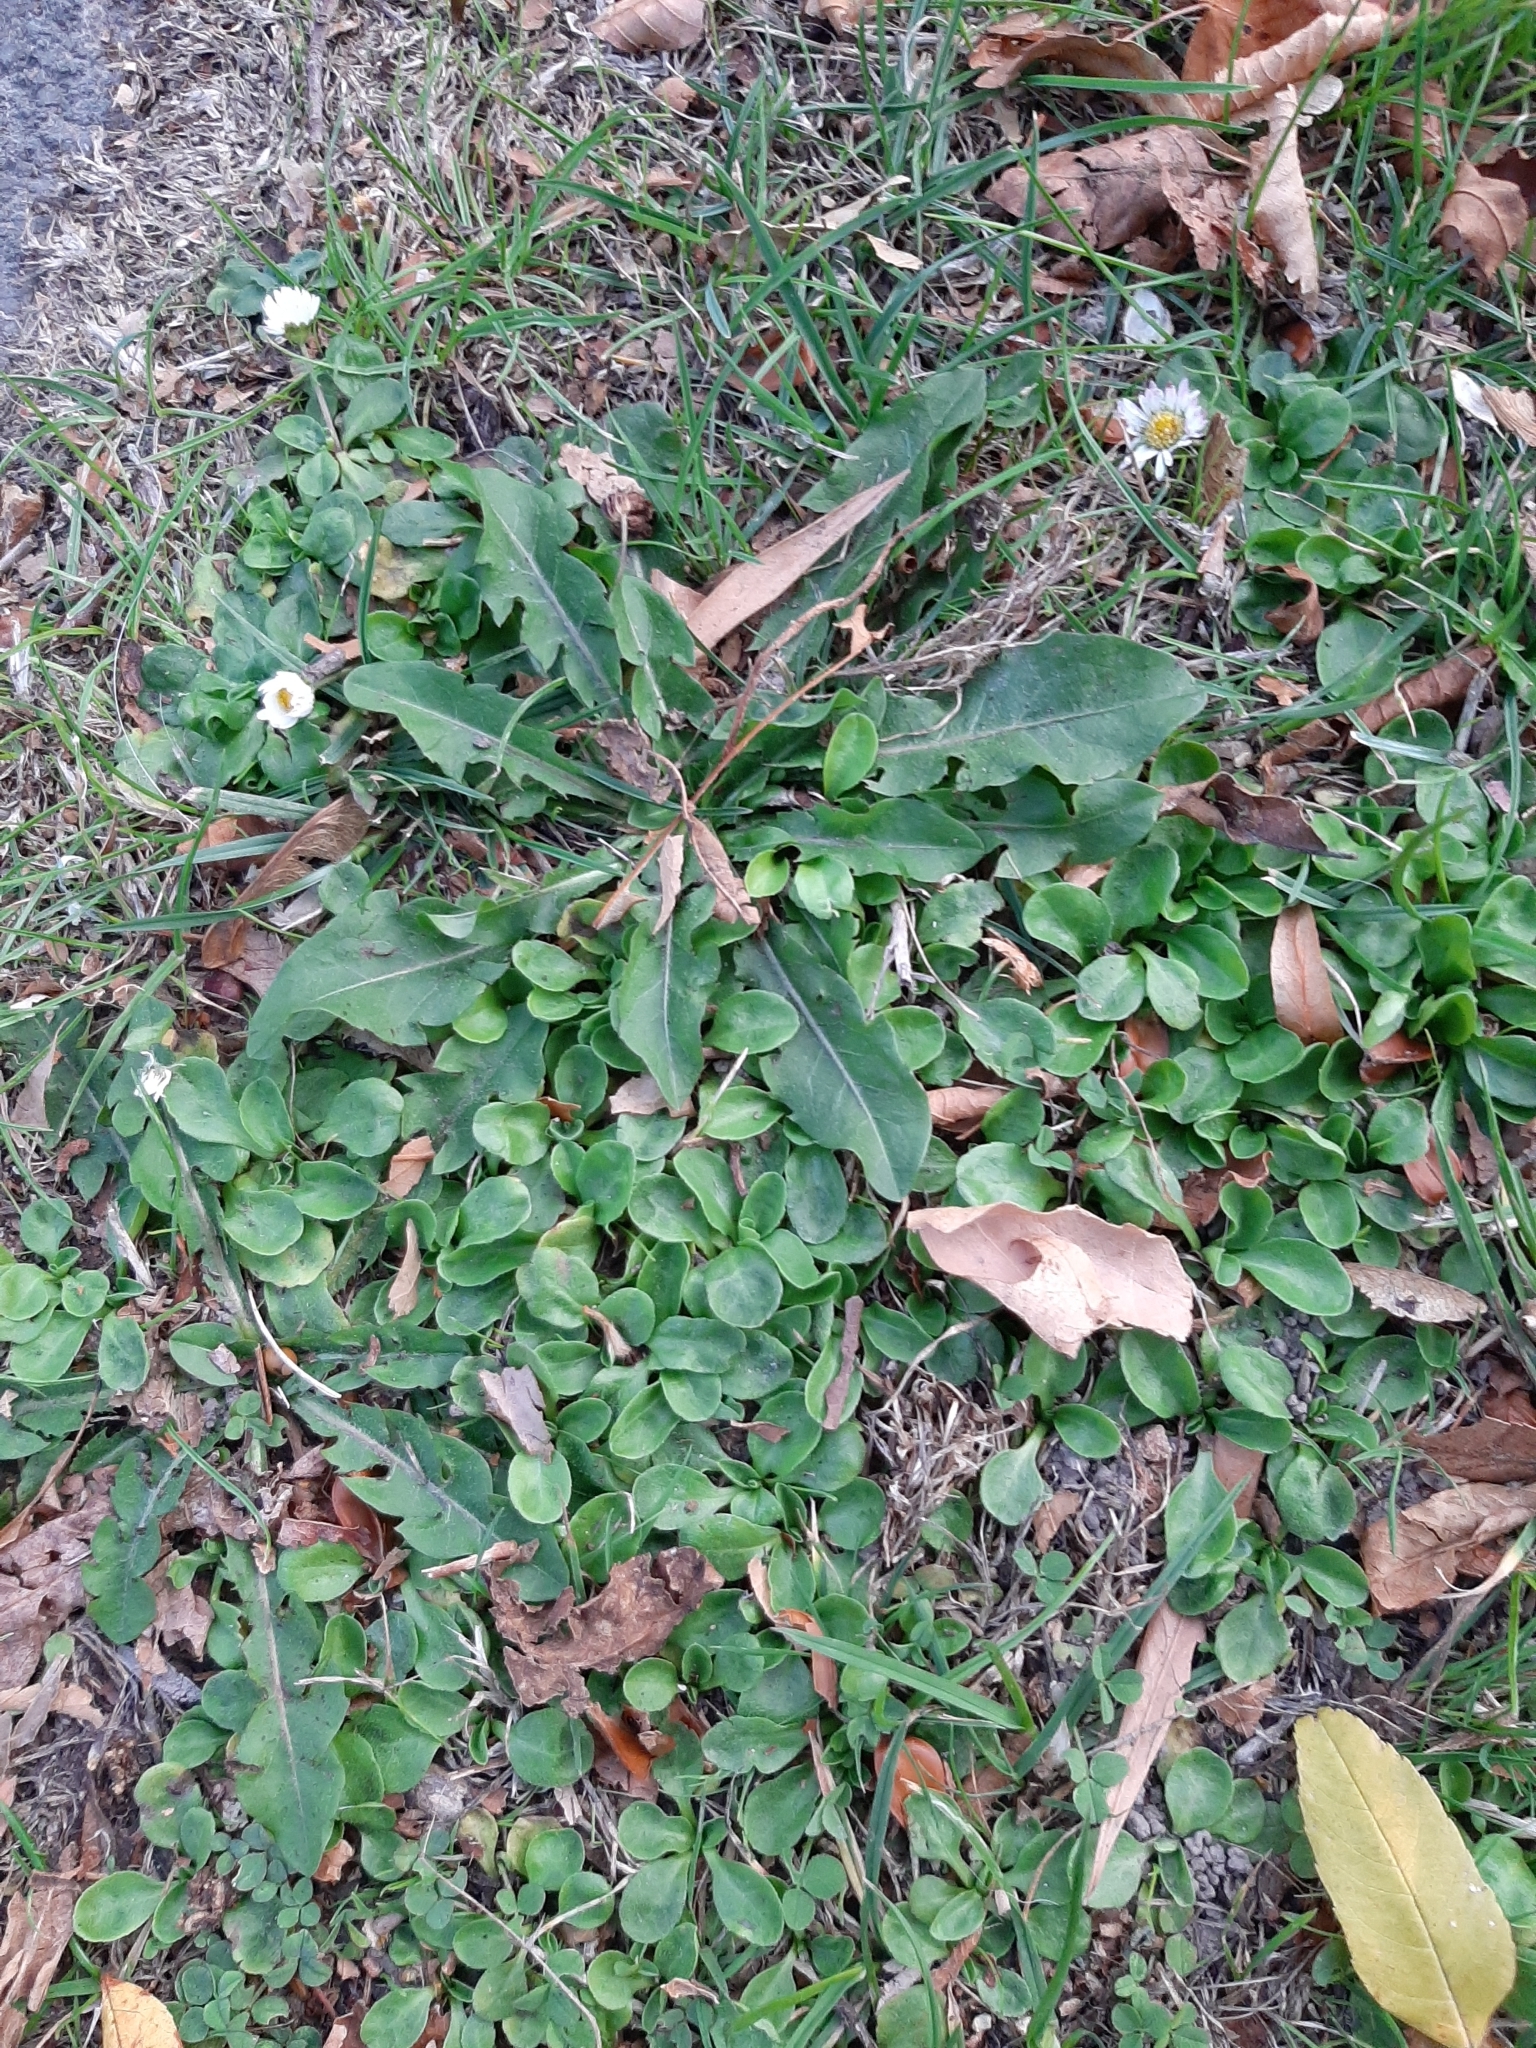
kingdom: Plantae
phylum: Tracheophyta
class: Magnoliopsida
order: Asterales
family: Asteraceae
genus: Bellis
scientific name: Bellis perennis
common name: Lawndaisy
